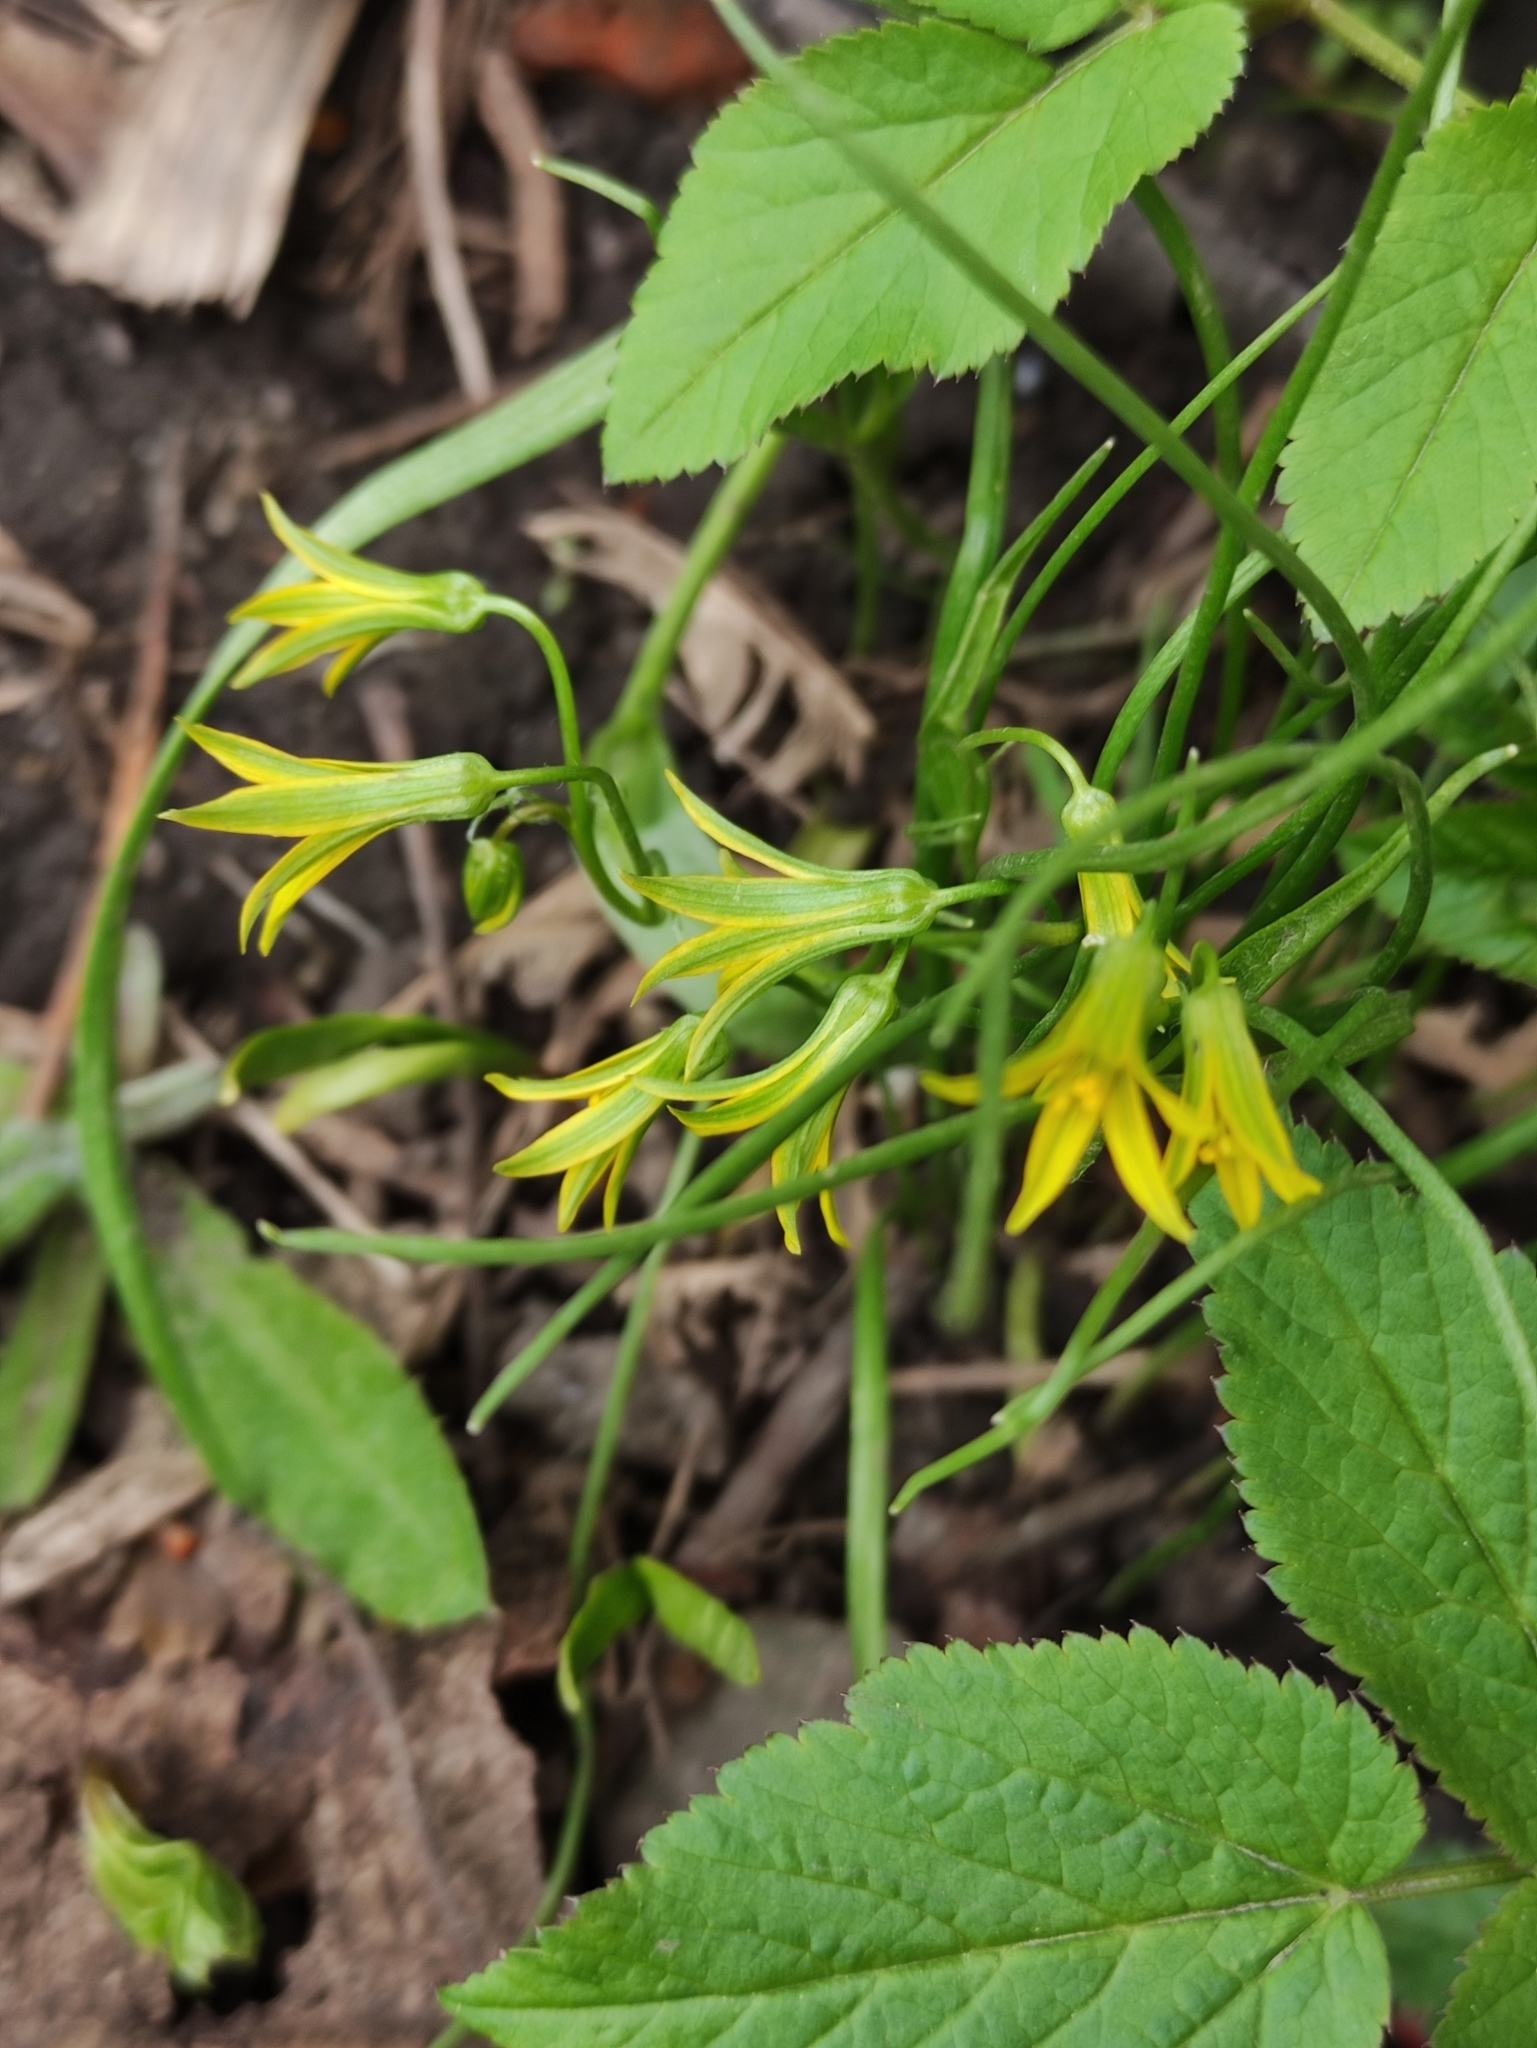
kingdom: Plantae
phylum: Tracheophyta
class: Liliopsida
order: Liliales
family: Liliaceae
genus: Gagea
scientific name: Gagea minima
